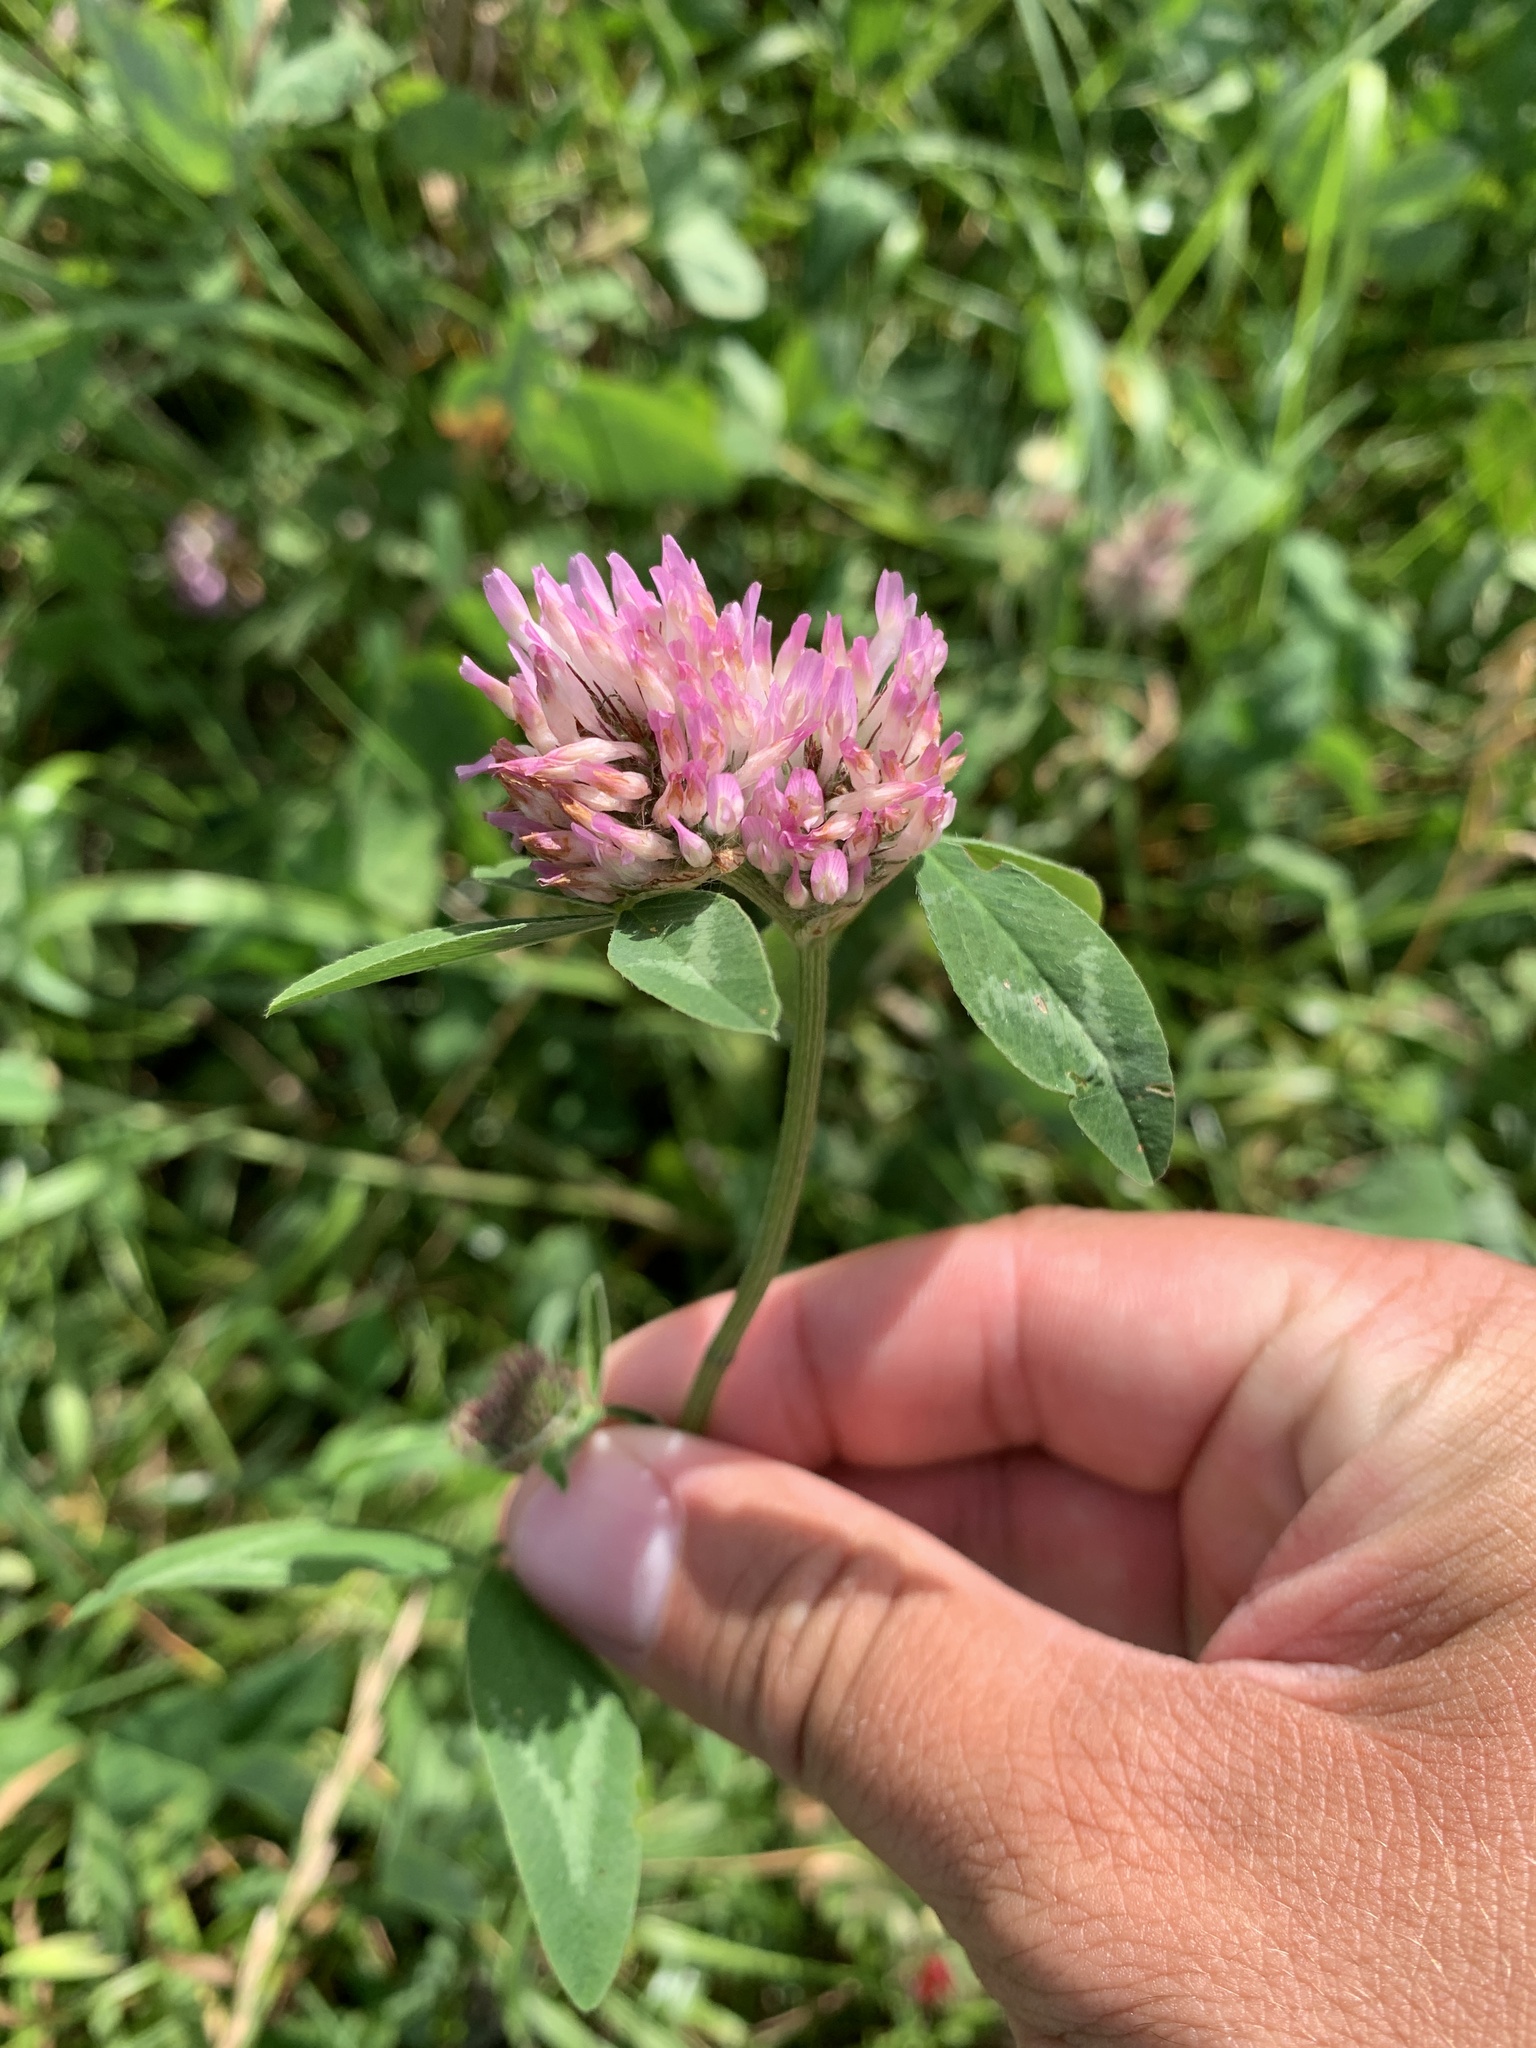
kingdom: Plantae
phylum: Tracheophyta
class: Magnoliopsida
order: Fabales
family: Fabaceae
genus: Trifolium
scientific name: Trifolium pratense
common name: Red clover
